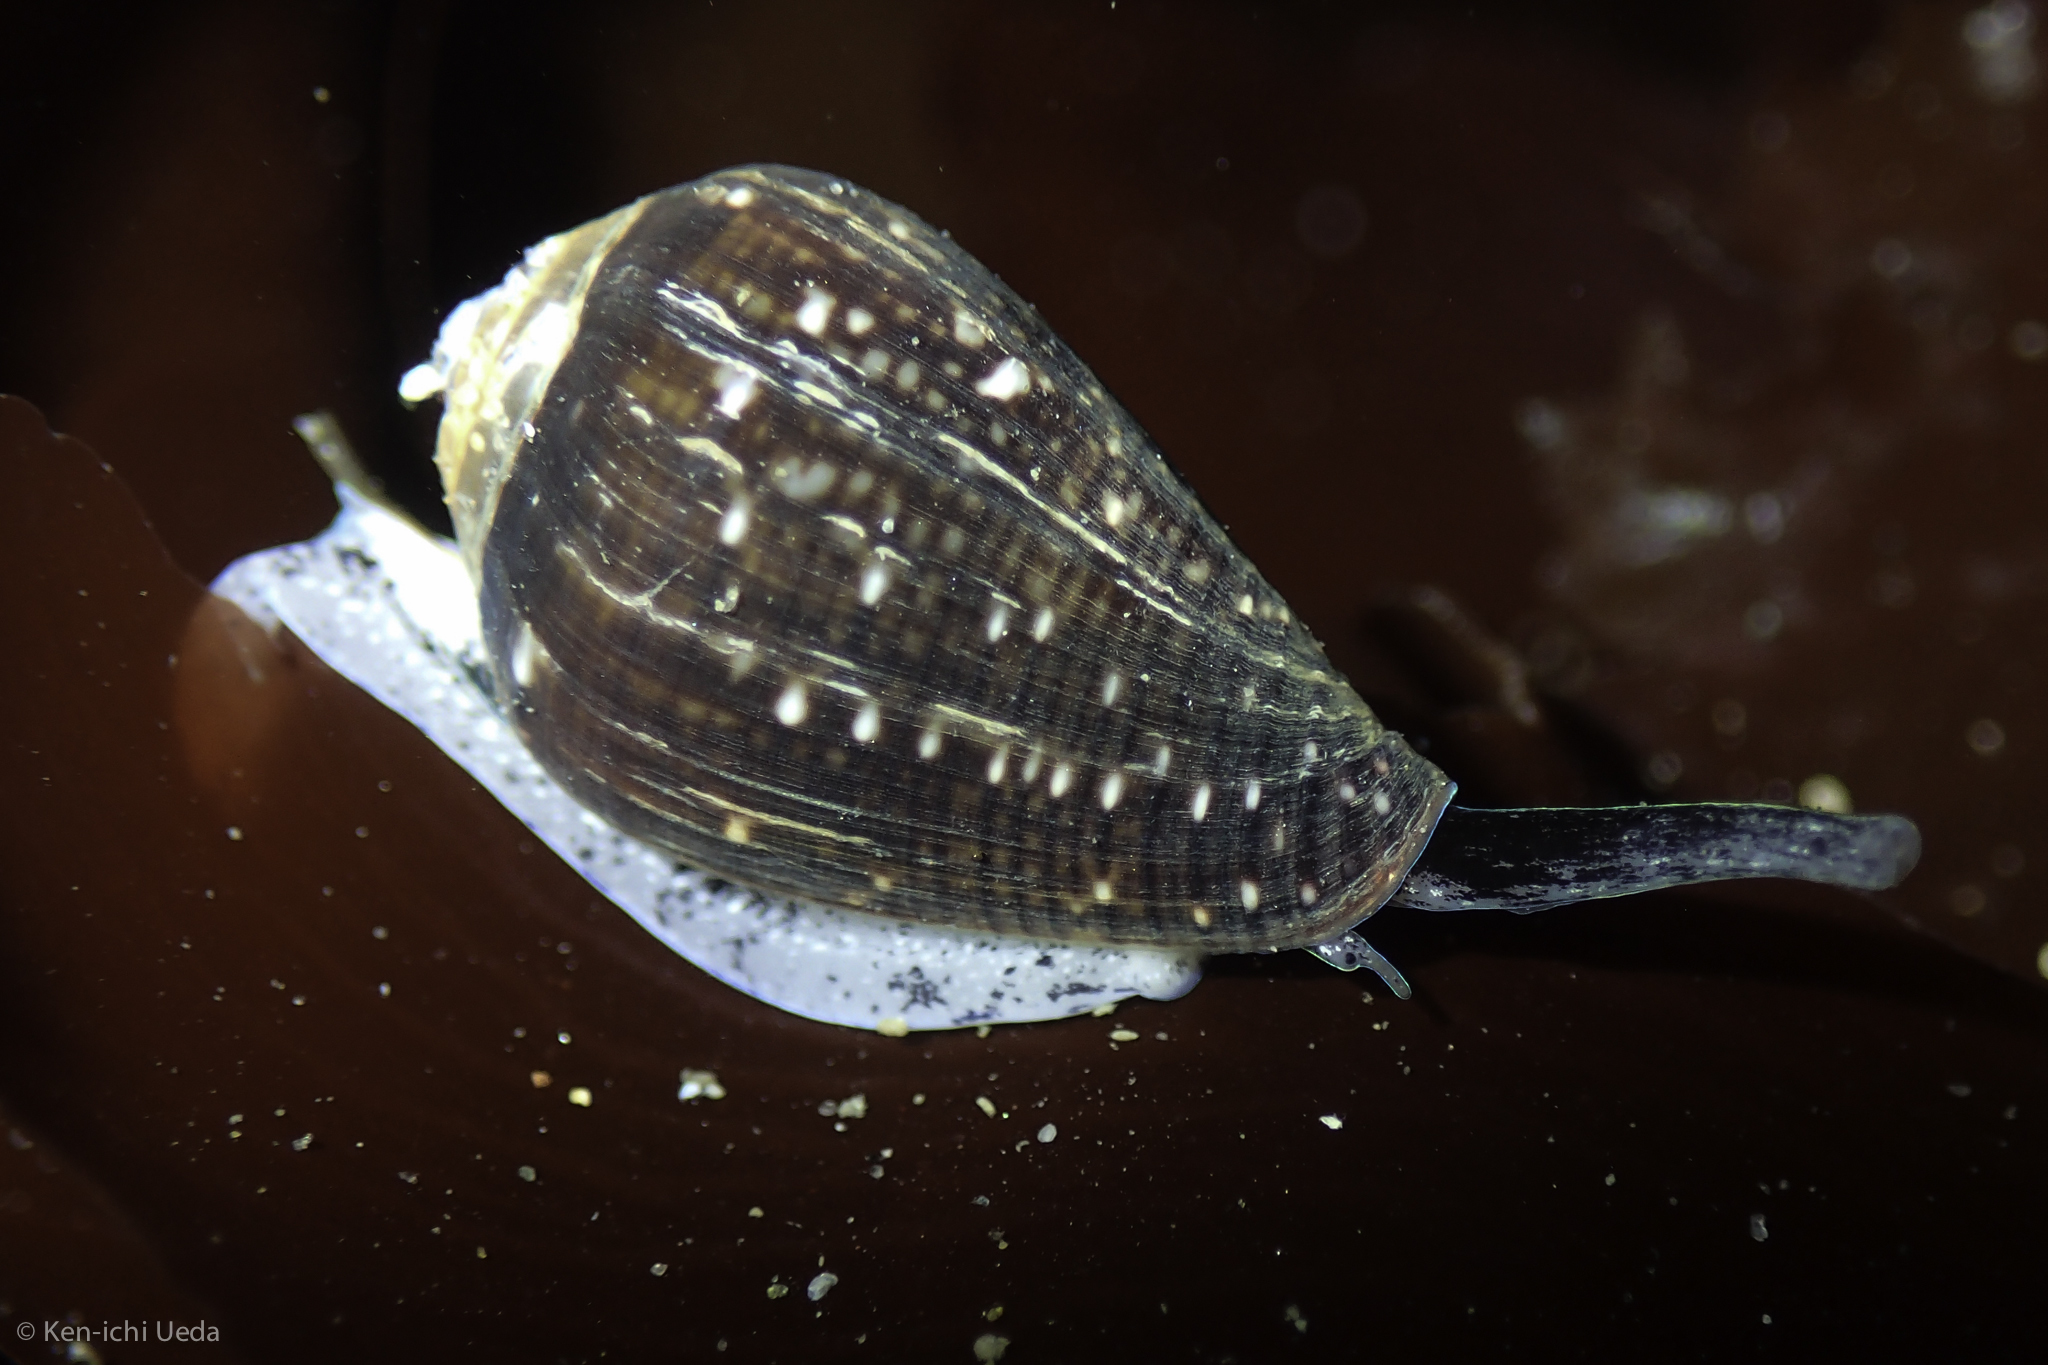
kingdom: Animalia
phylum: Mollusca
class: Gastropoda
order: Neogastropoda
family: Conidae
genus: Californiconus
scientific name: Californiconus californicus
